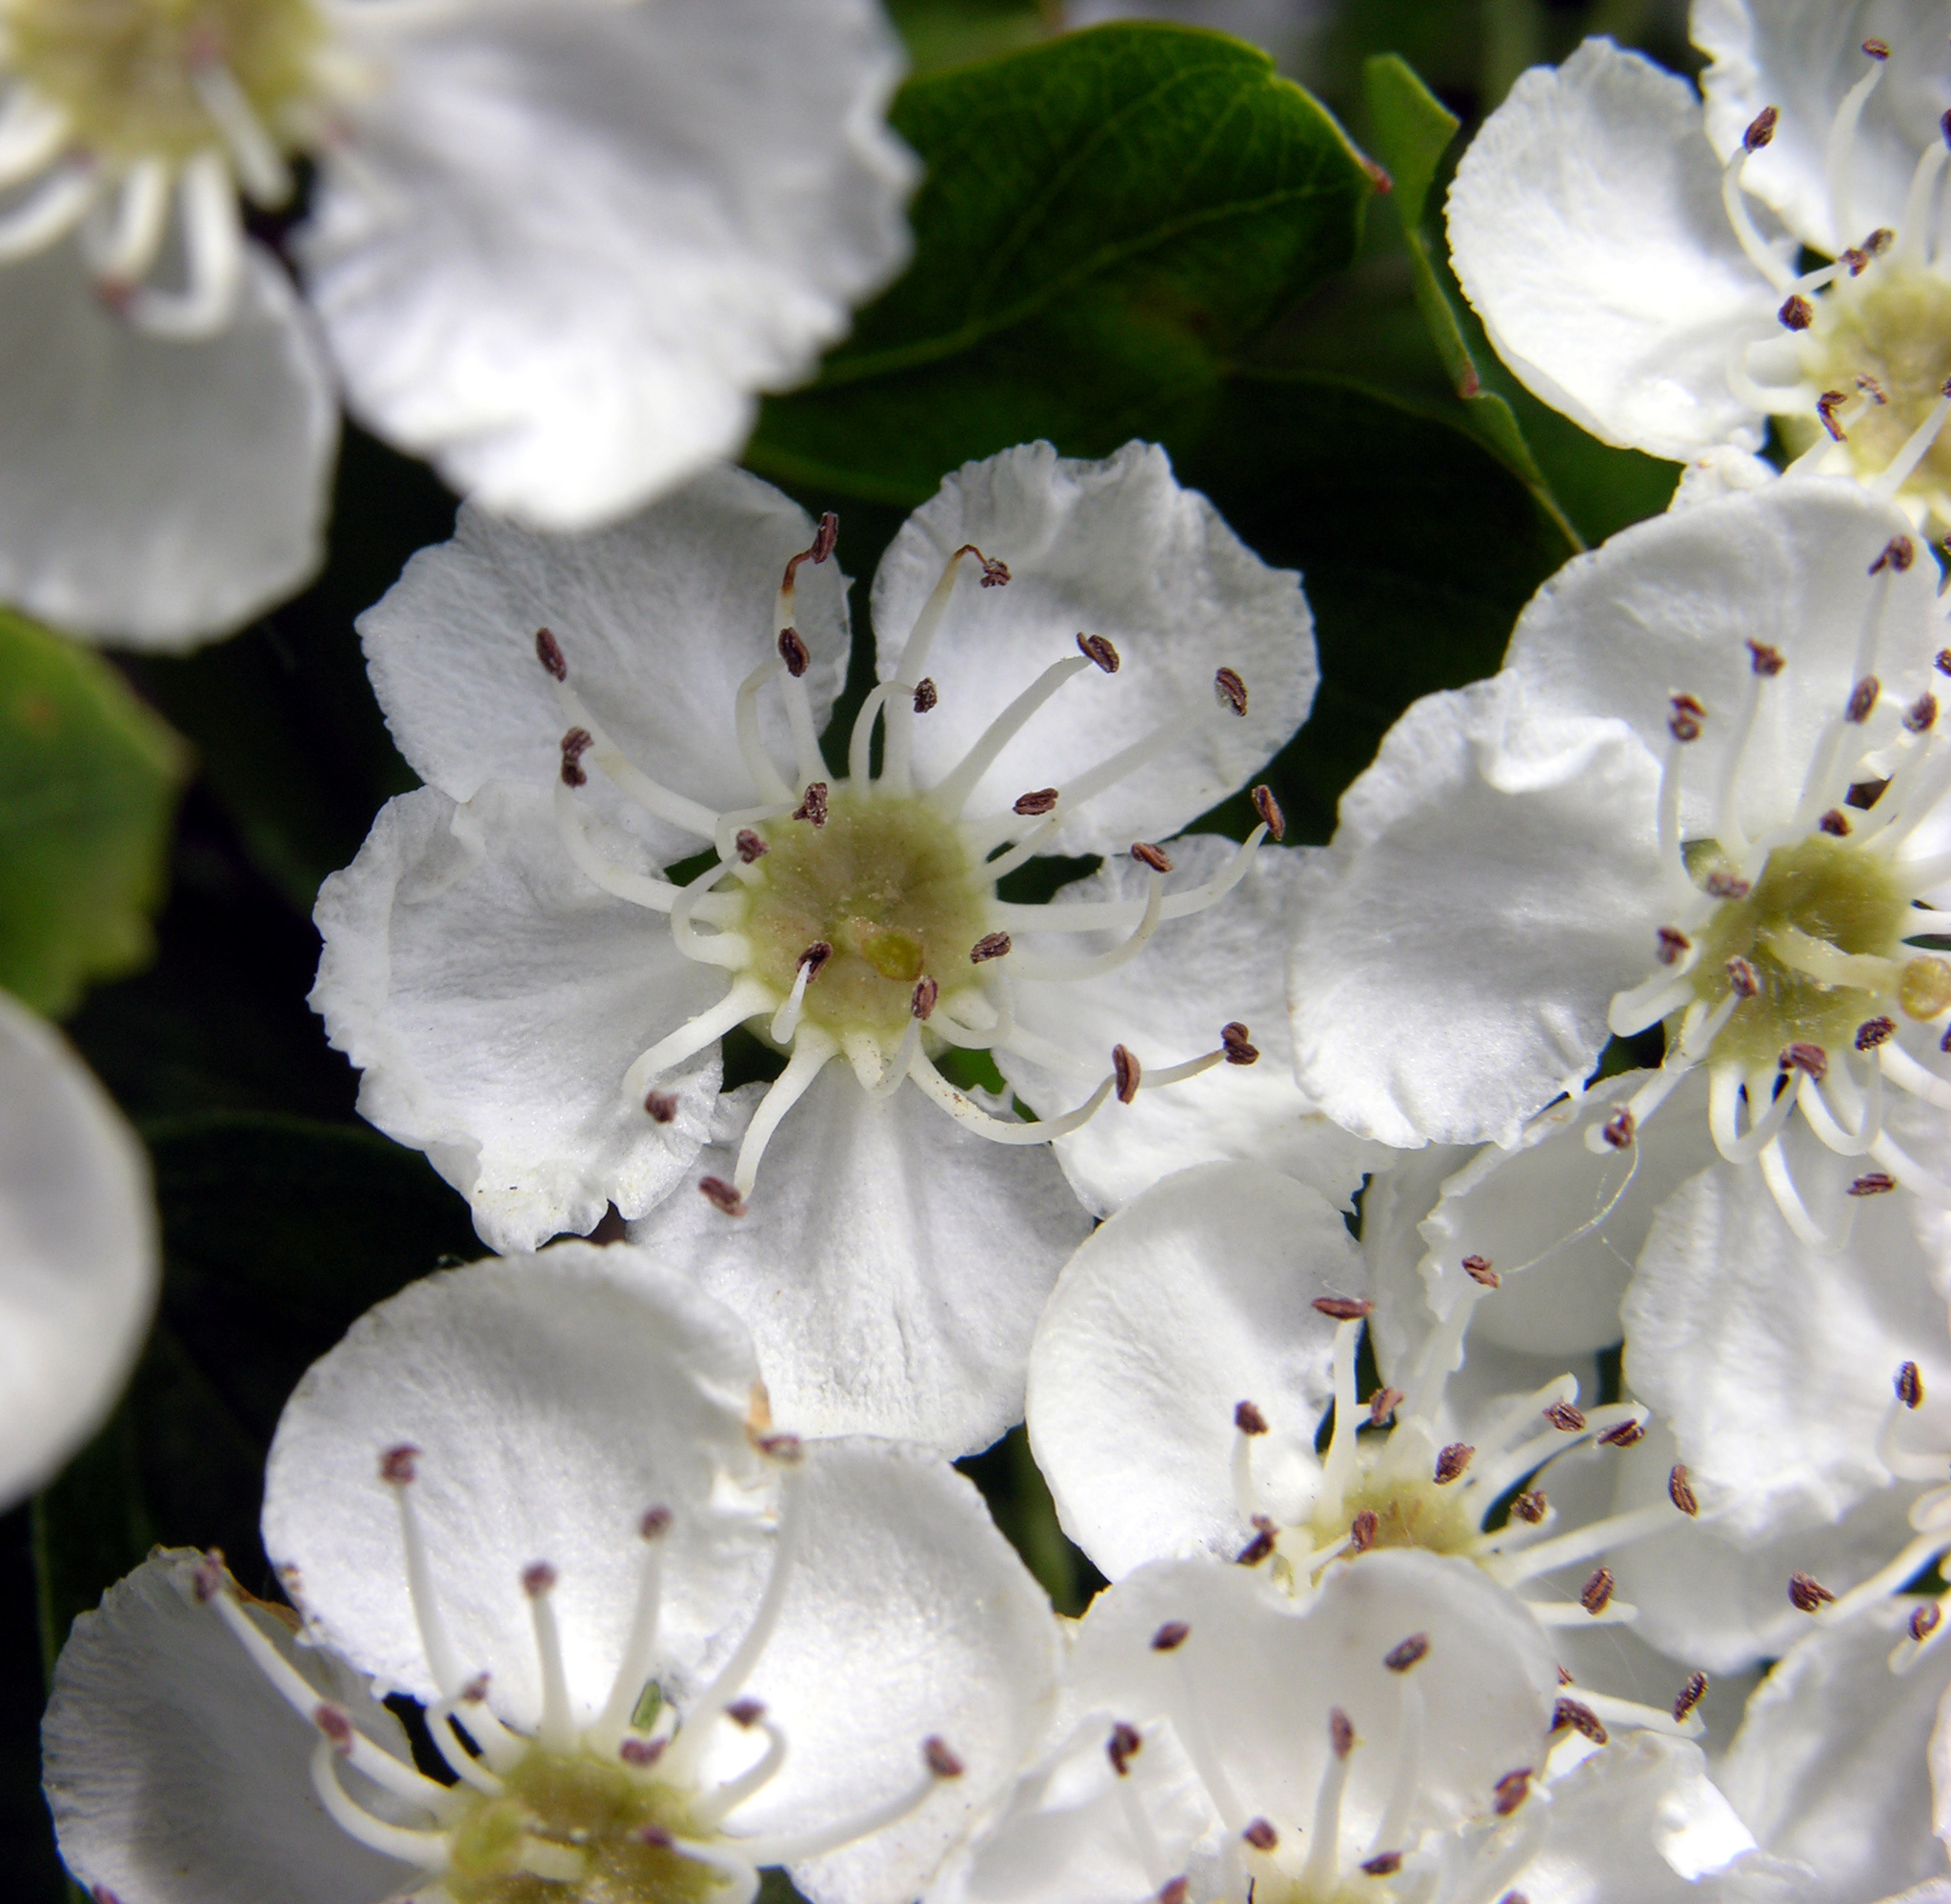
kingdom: Plantae
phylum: Tracheophyta
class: Magnoliopsida
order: Rosales
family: Rosaceae
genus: Crataegus
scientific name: Crataegus monogyna
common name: Hawthorn
